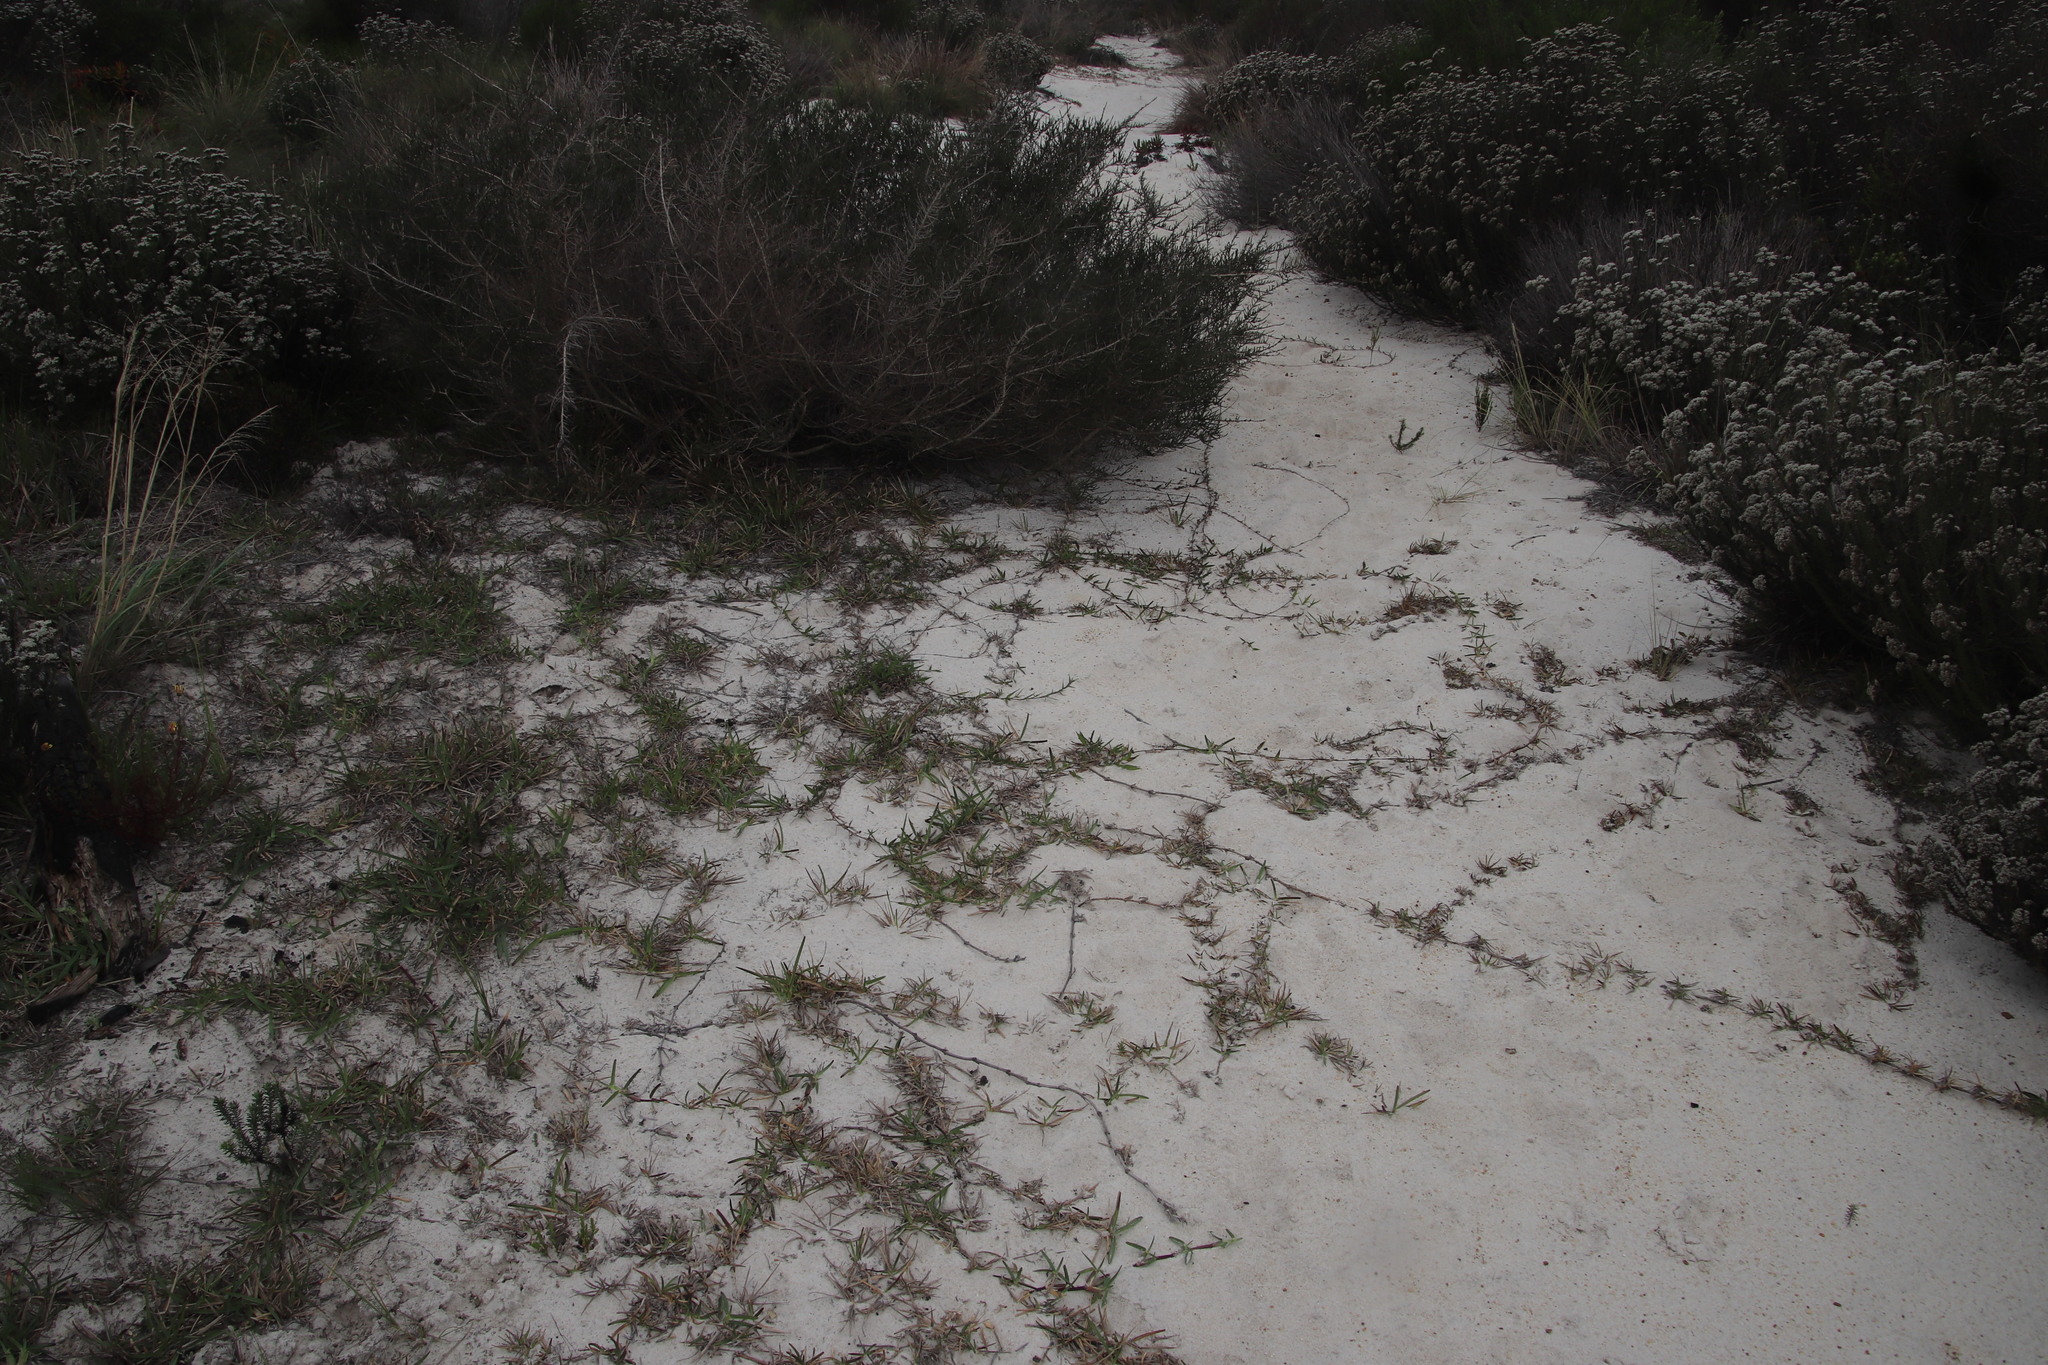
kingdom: Plantae
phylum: Tracheophyta
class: Liliopsida
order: Poales
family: Poaceae
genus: Stenotaphrum
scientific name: Stenotaphrum secundatum
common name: St. augustine grass
